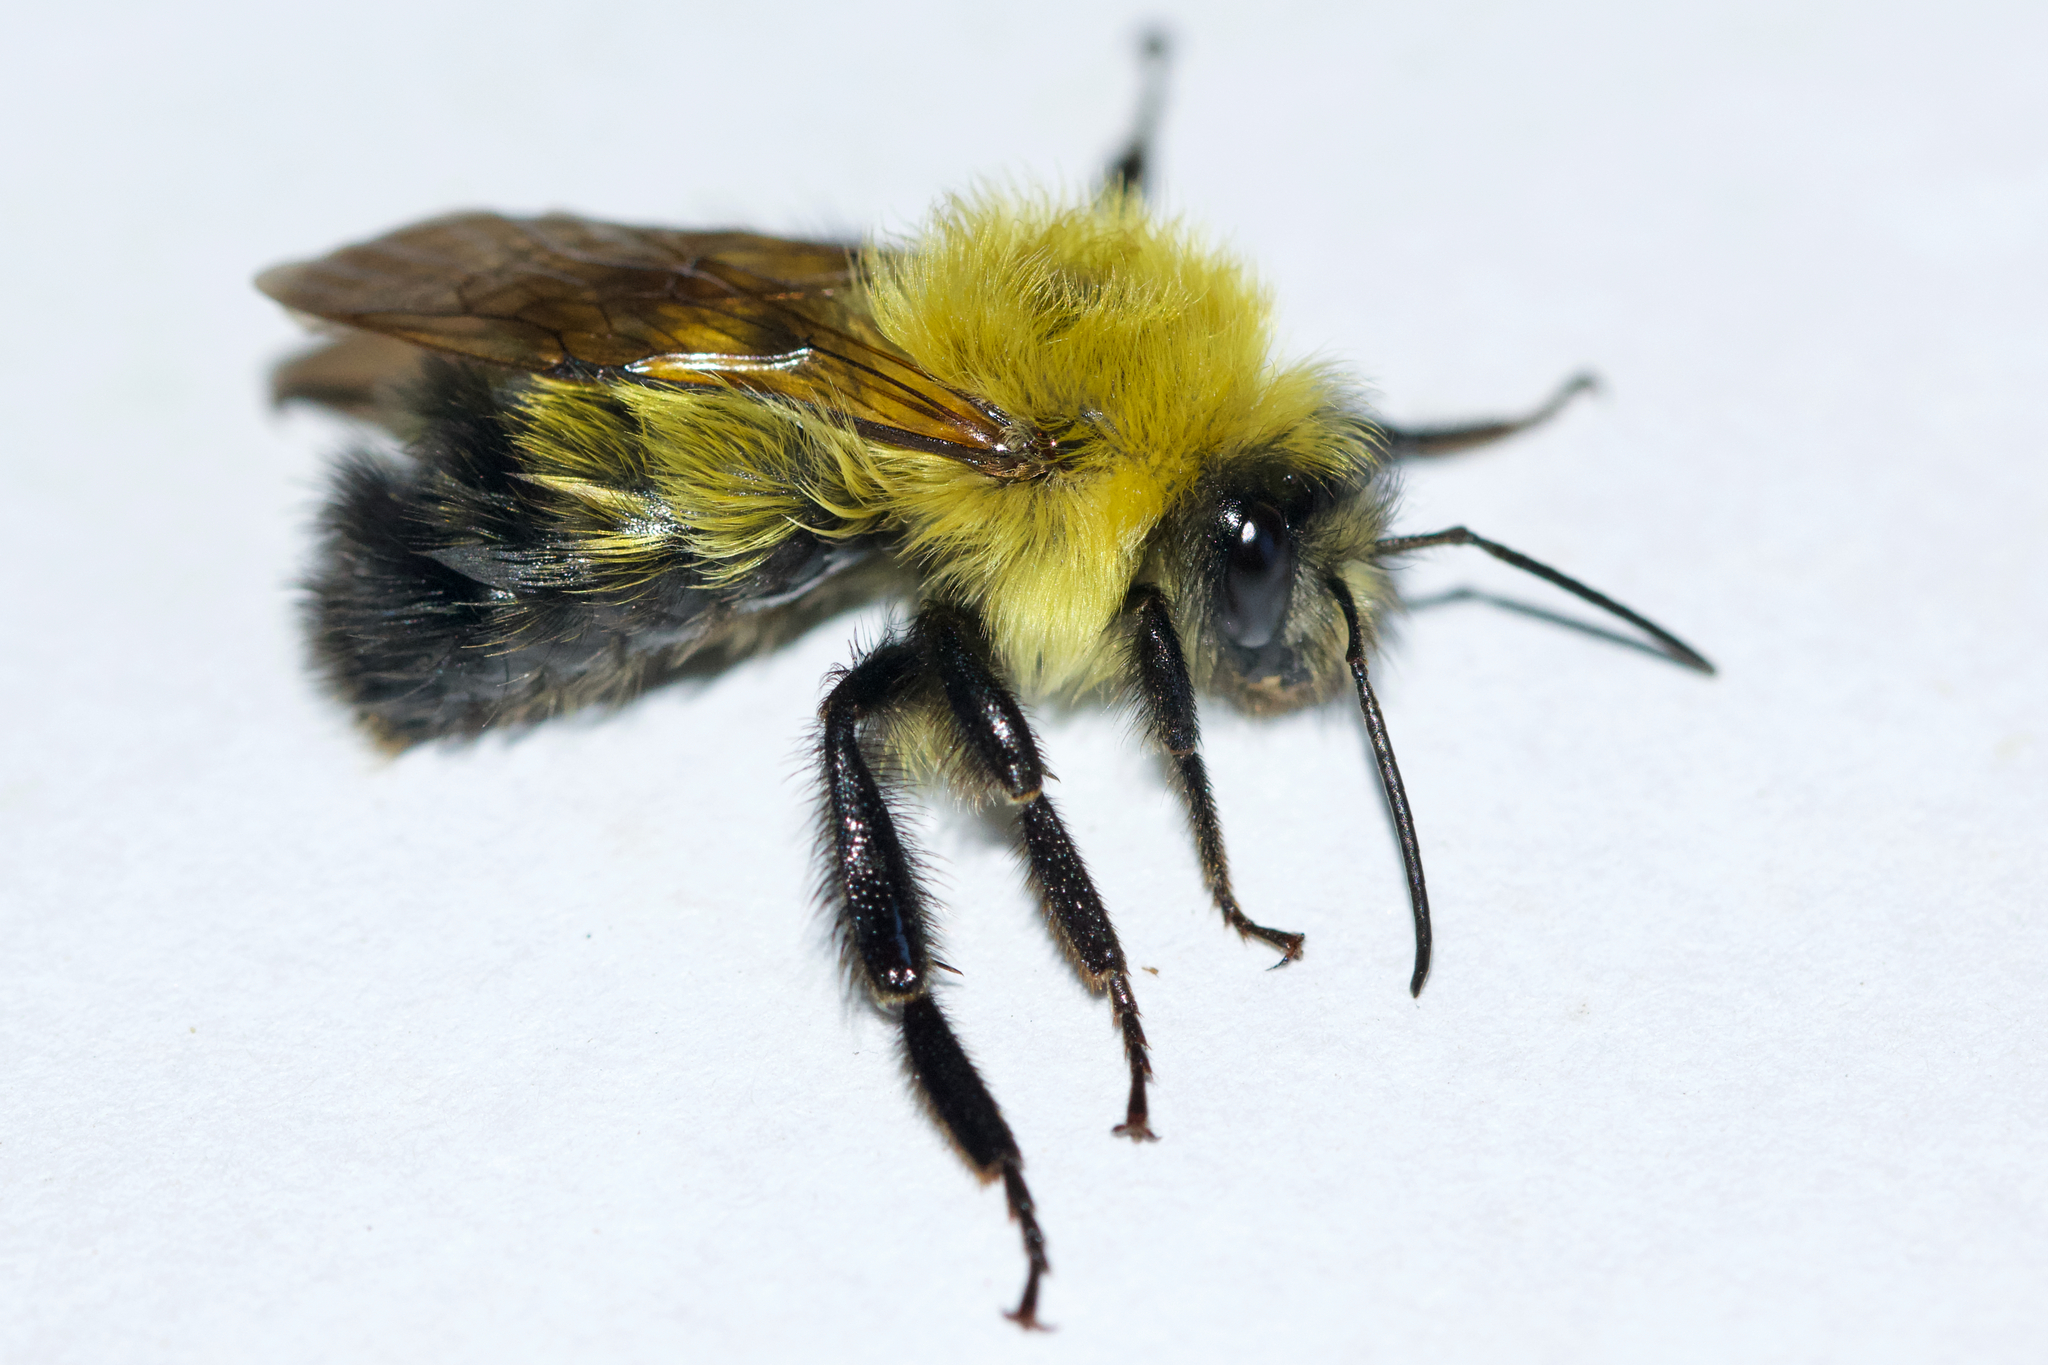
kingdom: Animalia
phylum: Arthropoda
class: Insecta
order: Hymenoptera
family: Apidae
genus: Bombus
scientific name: Bombus perplexus
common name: Confusing bumble bee
